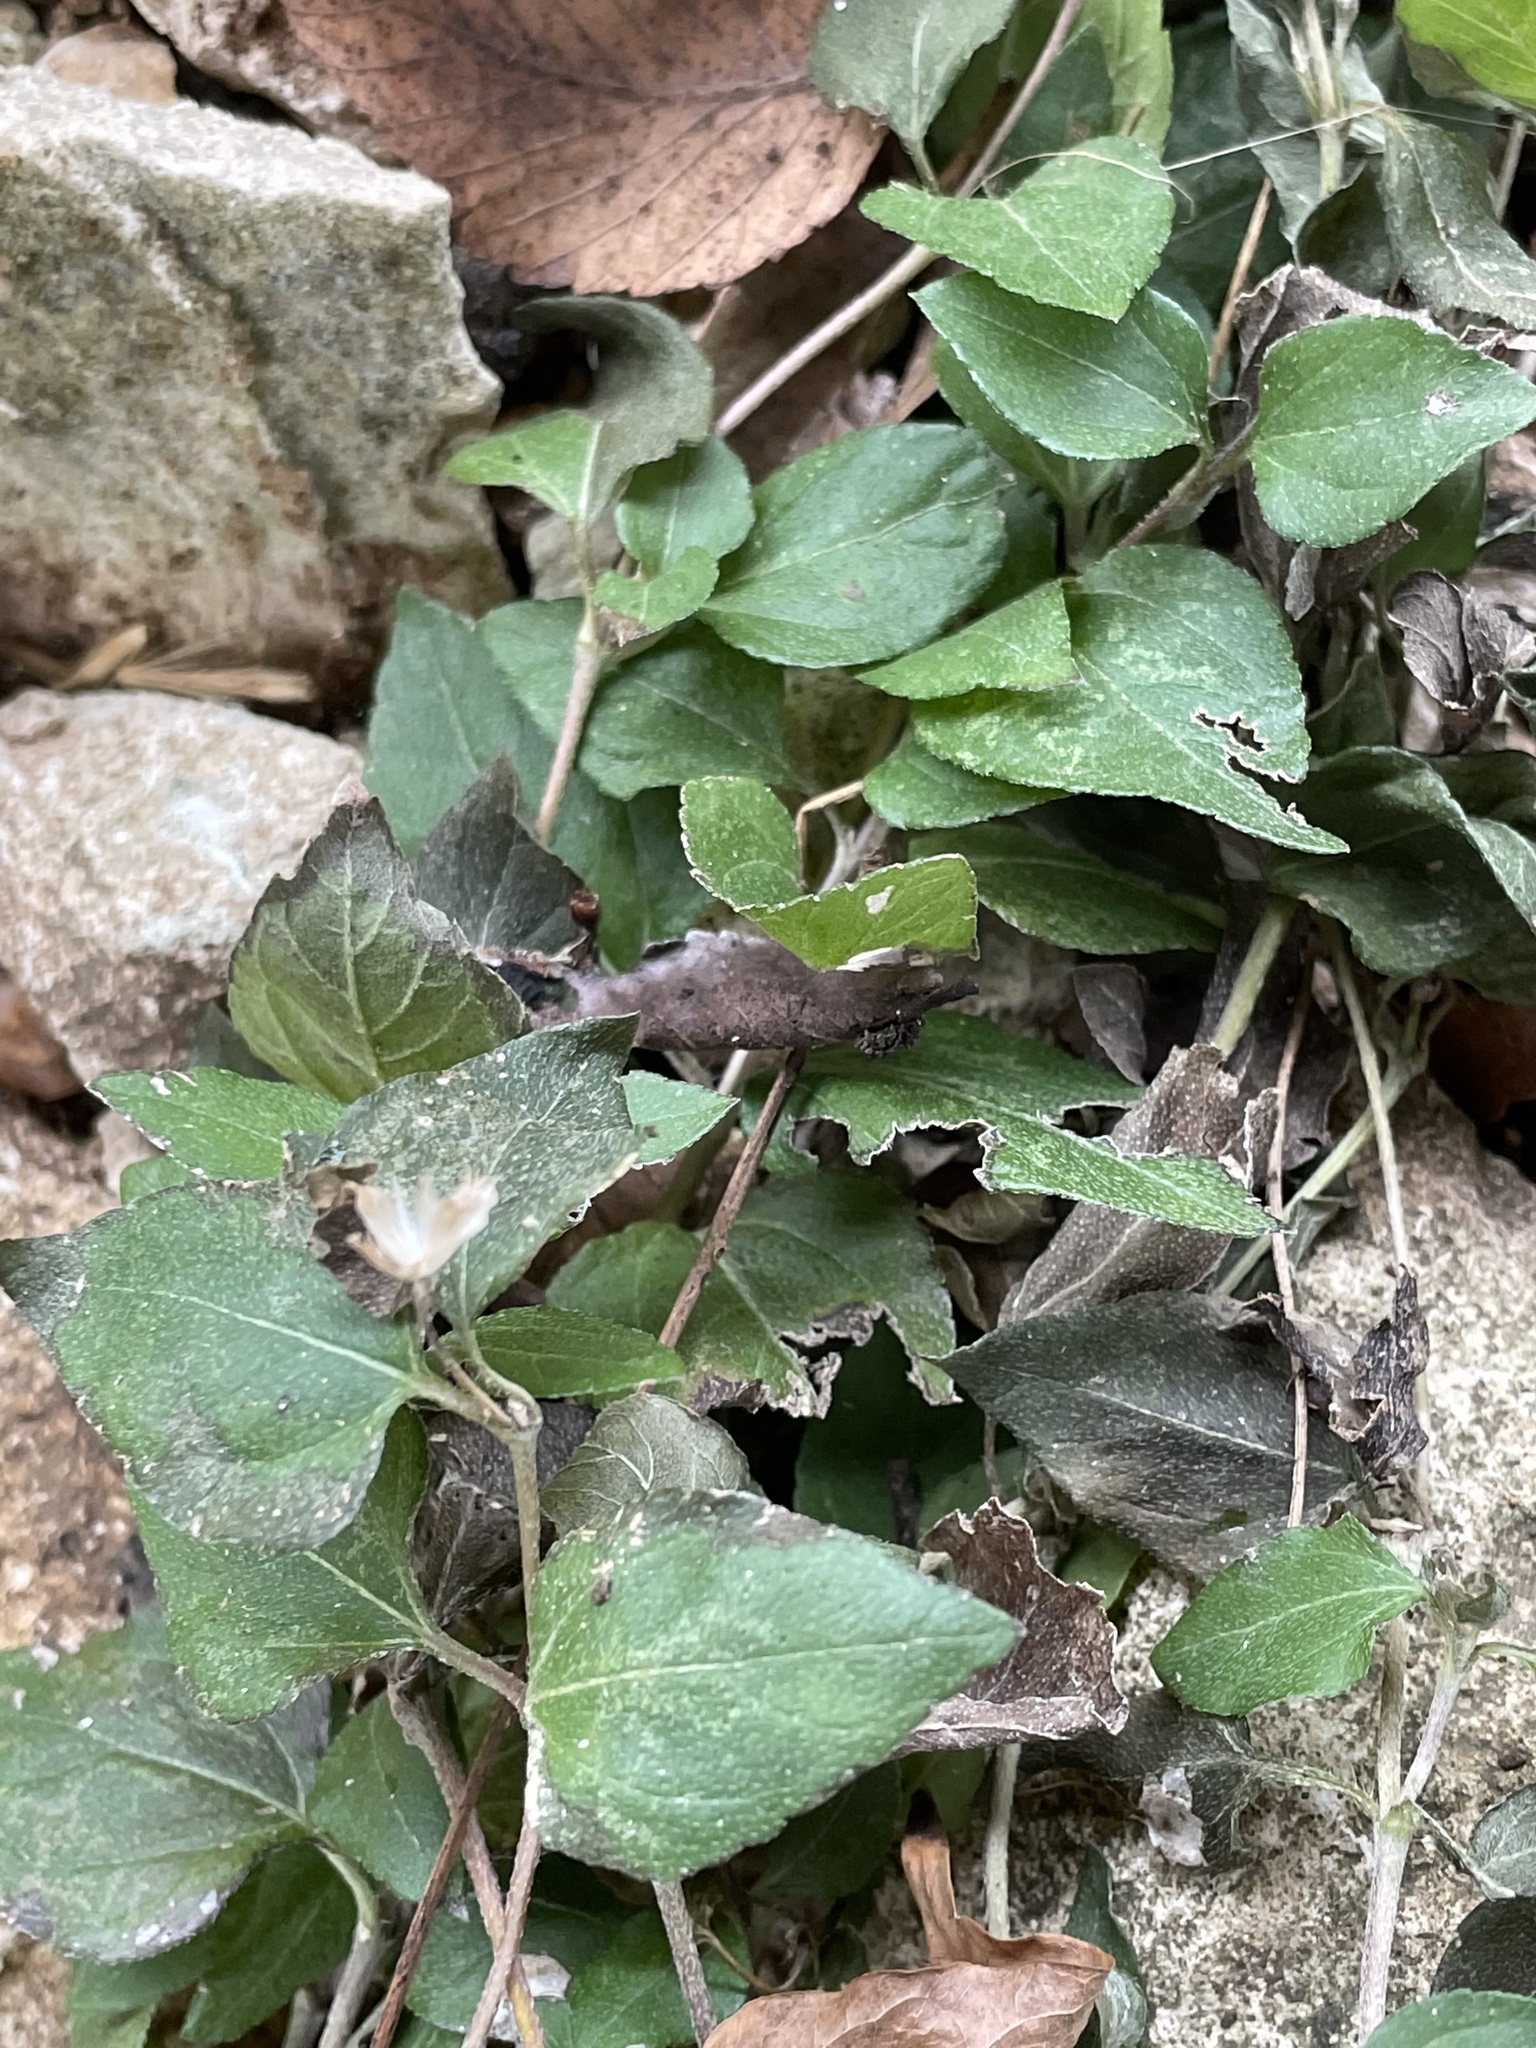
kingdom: Plantae
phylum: Tracheophyta
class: Magnoliopsida
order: Asterales
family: Asteraceae
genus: Calyptocarpus
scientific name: Calyptocarpus vialis
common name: Straggler daisy
